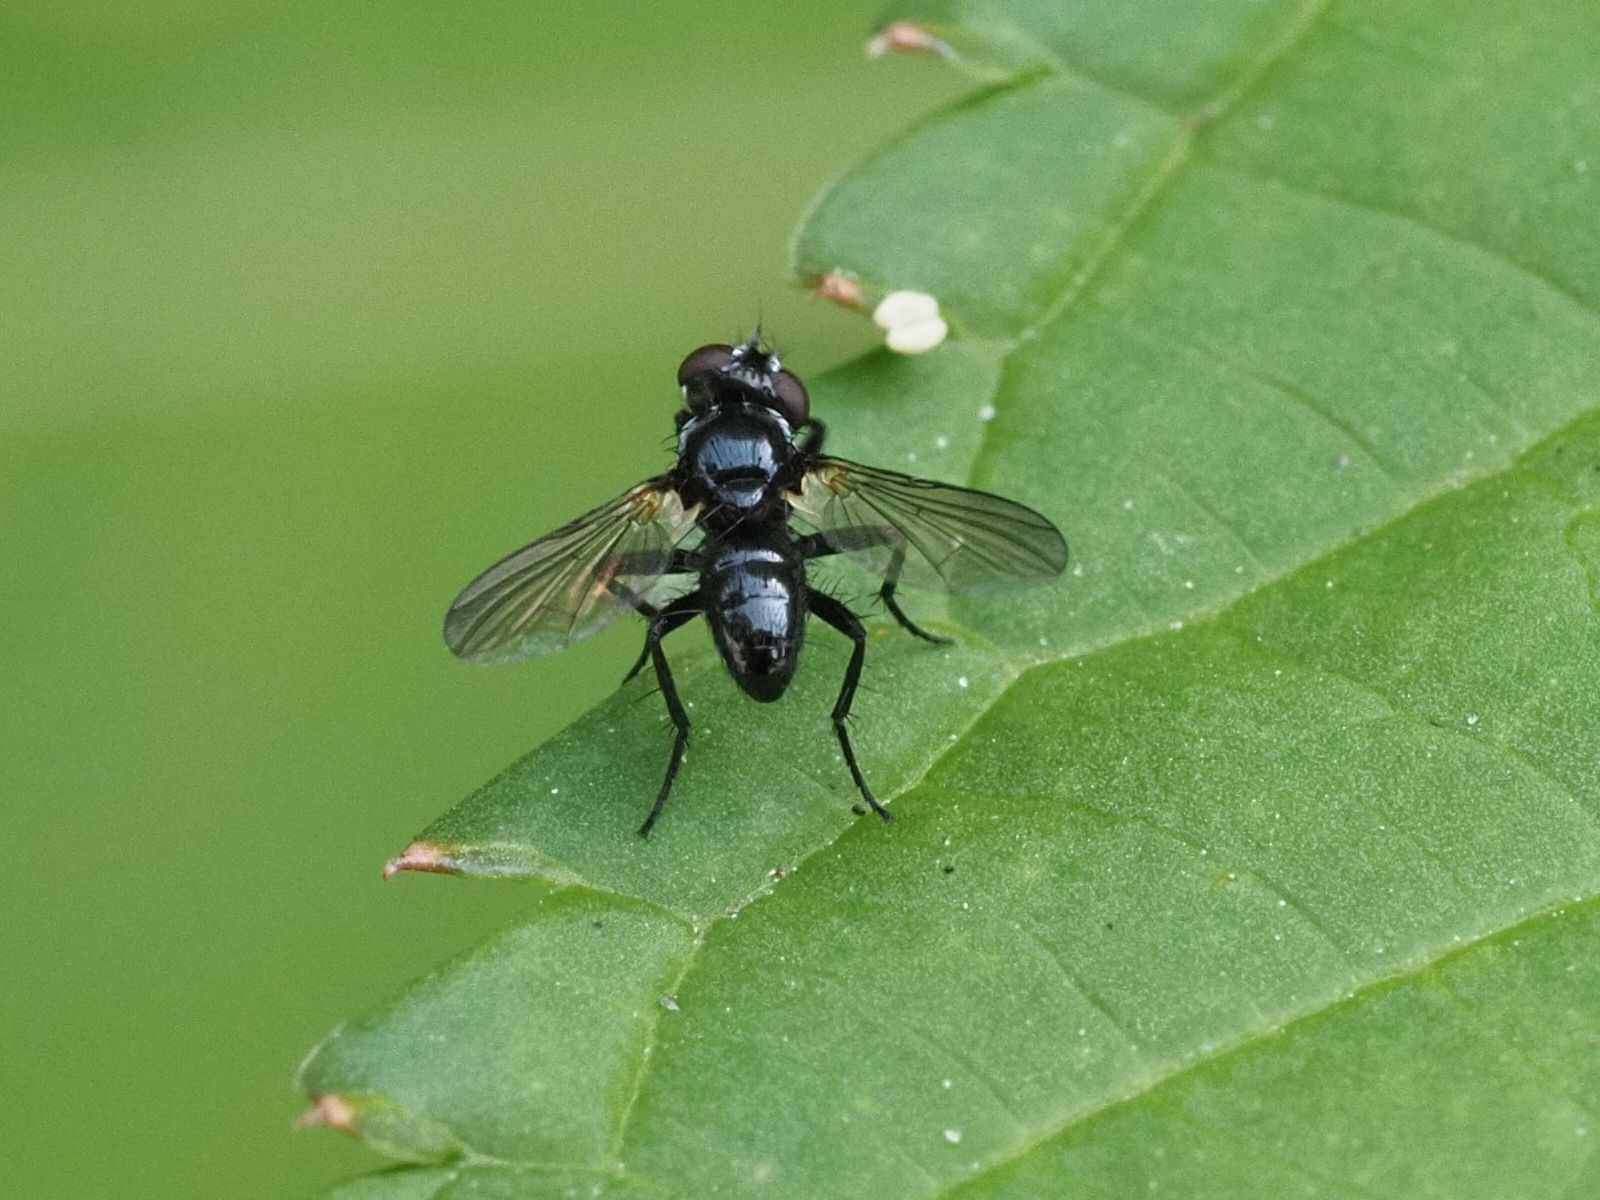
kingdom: Animalia
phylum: Arthropoda
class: Insecta
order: Diptera
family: Tachinidae
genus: Phania
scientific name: Phania funesta
